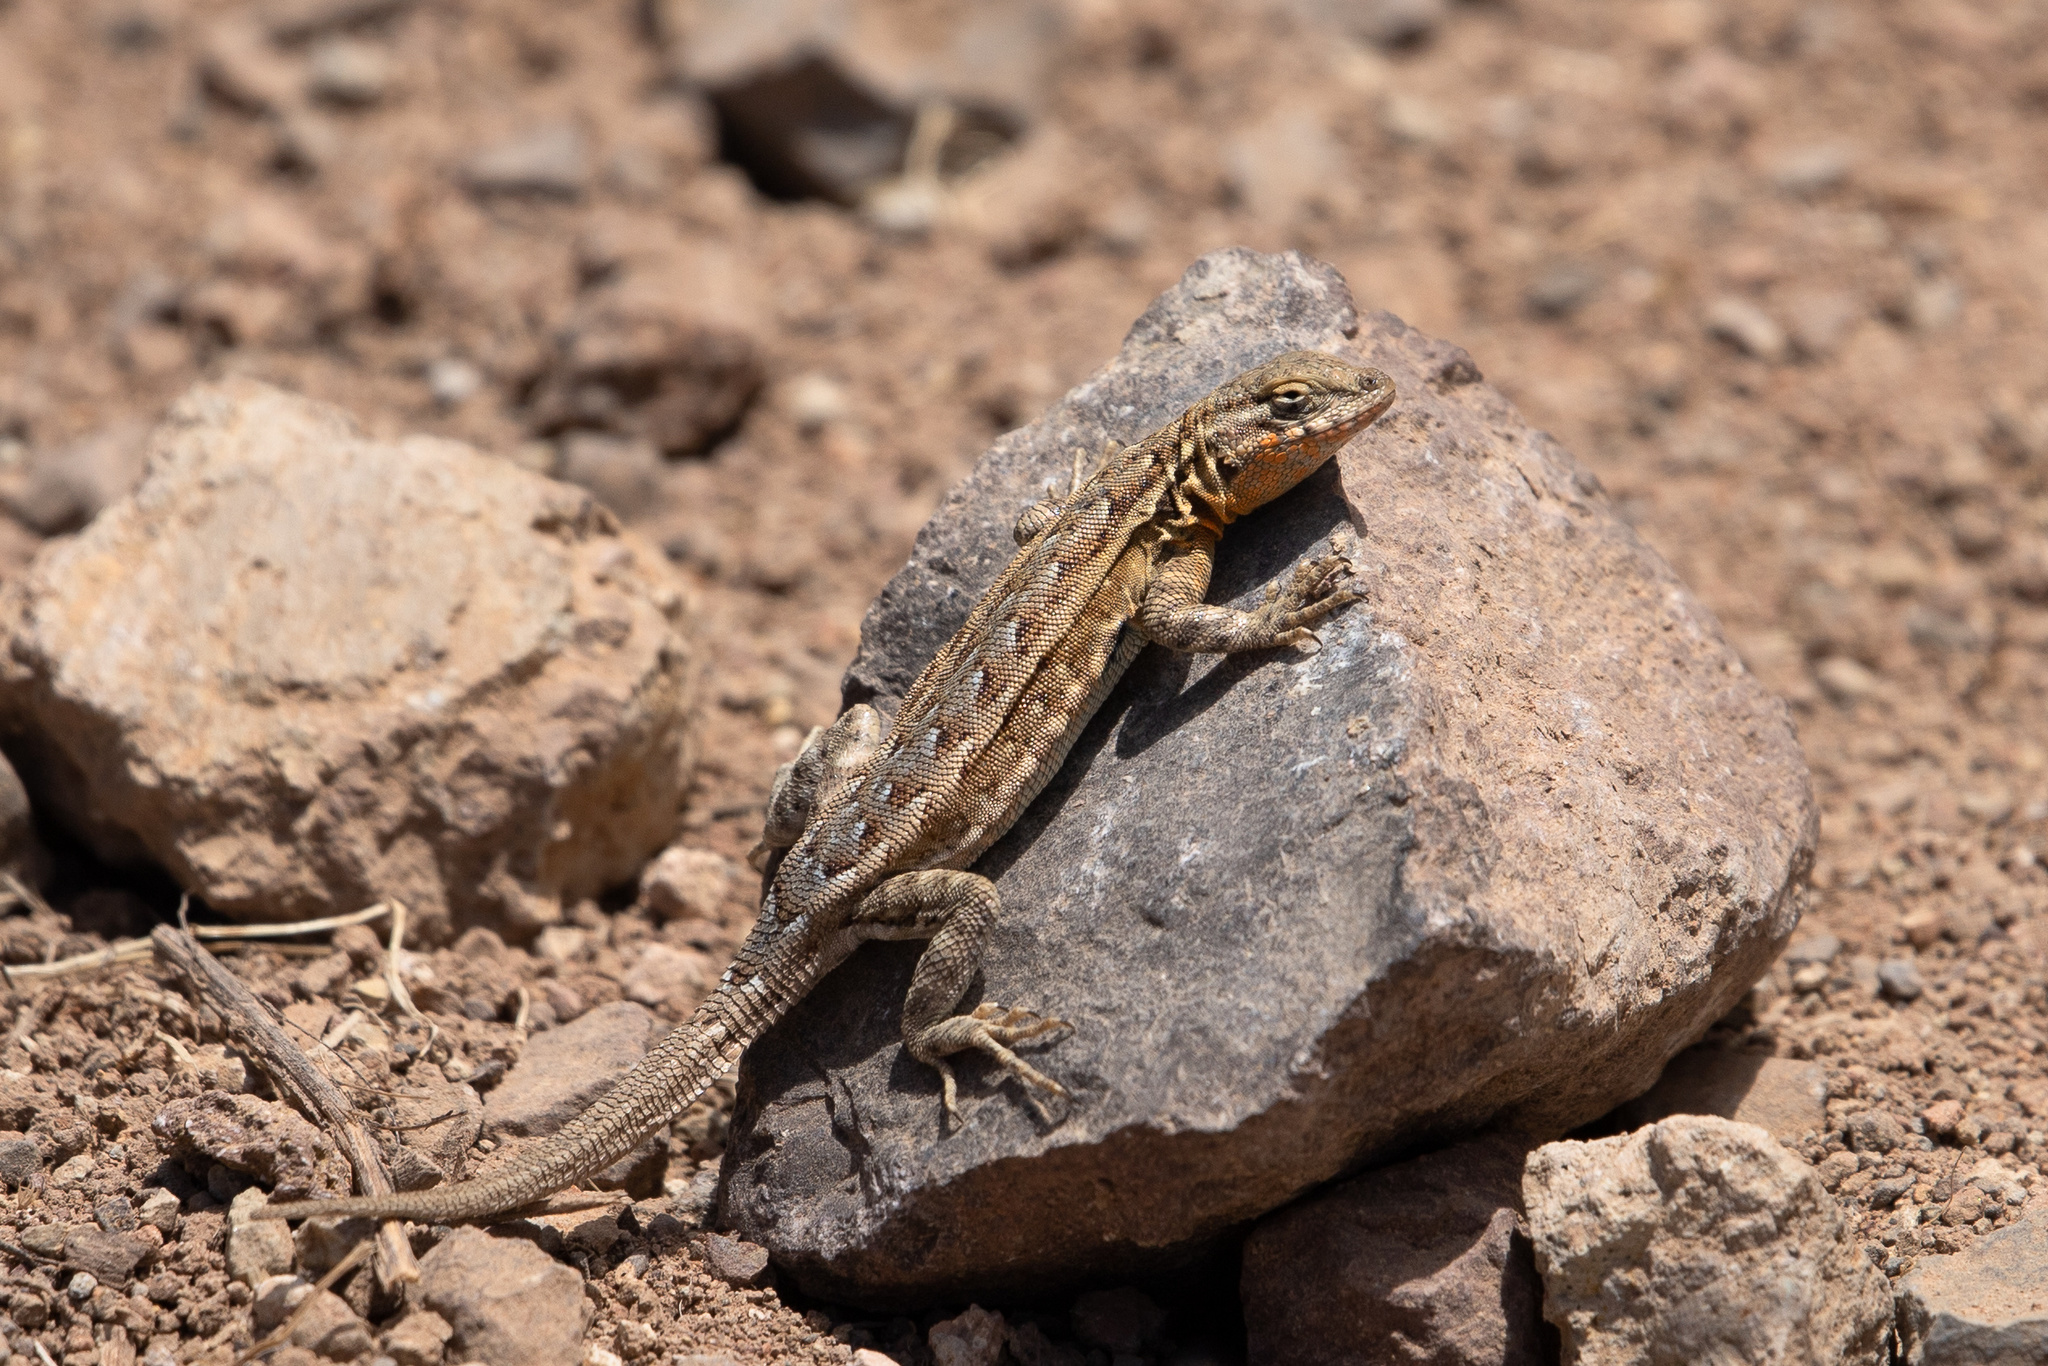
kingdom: Animalia
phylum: Chordata
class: Squamata
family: Phrynosomatidae
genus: Uta
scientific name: Uta stansburiana
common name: Side-blotched lizard
